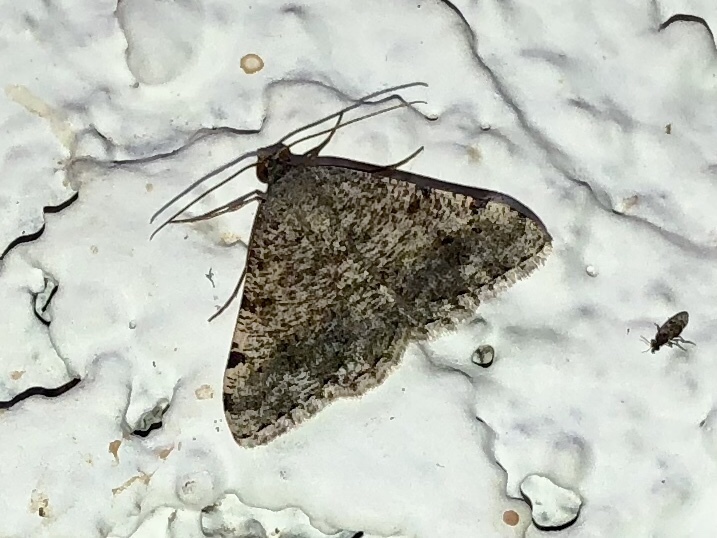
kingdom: Animalia
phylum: Arthropoda
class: Insecta
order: Lepidoptera
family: Geometridae
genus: Digrammia
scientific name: Digrammia colorata
